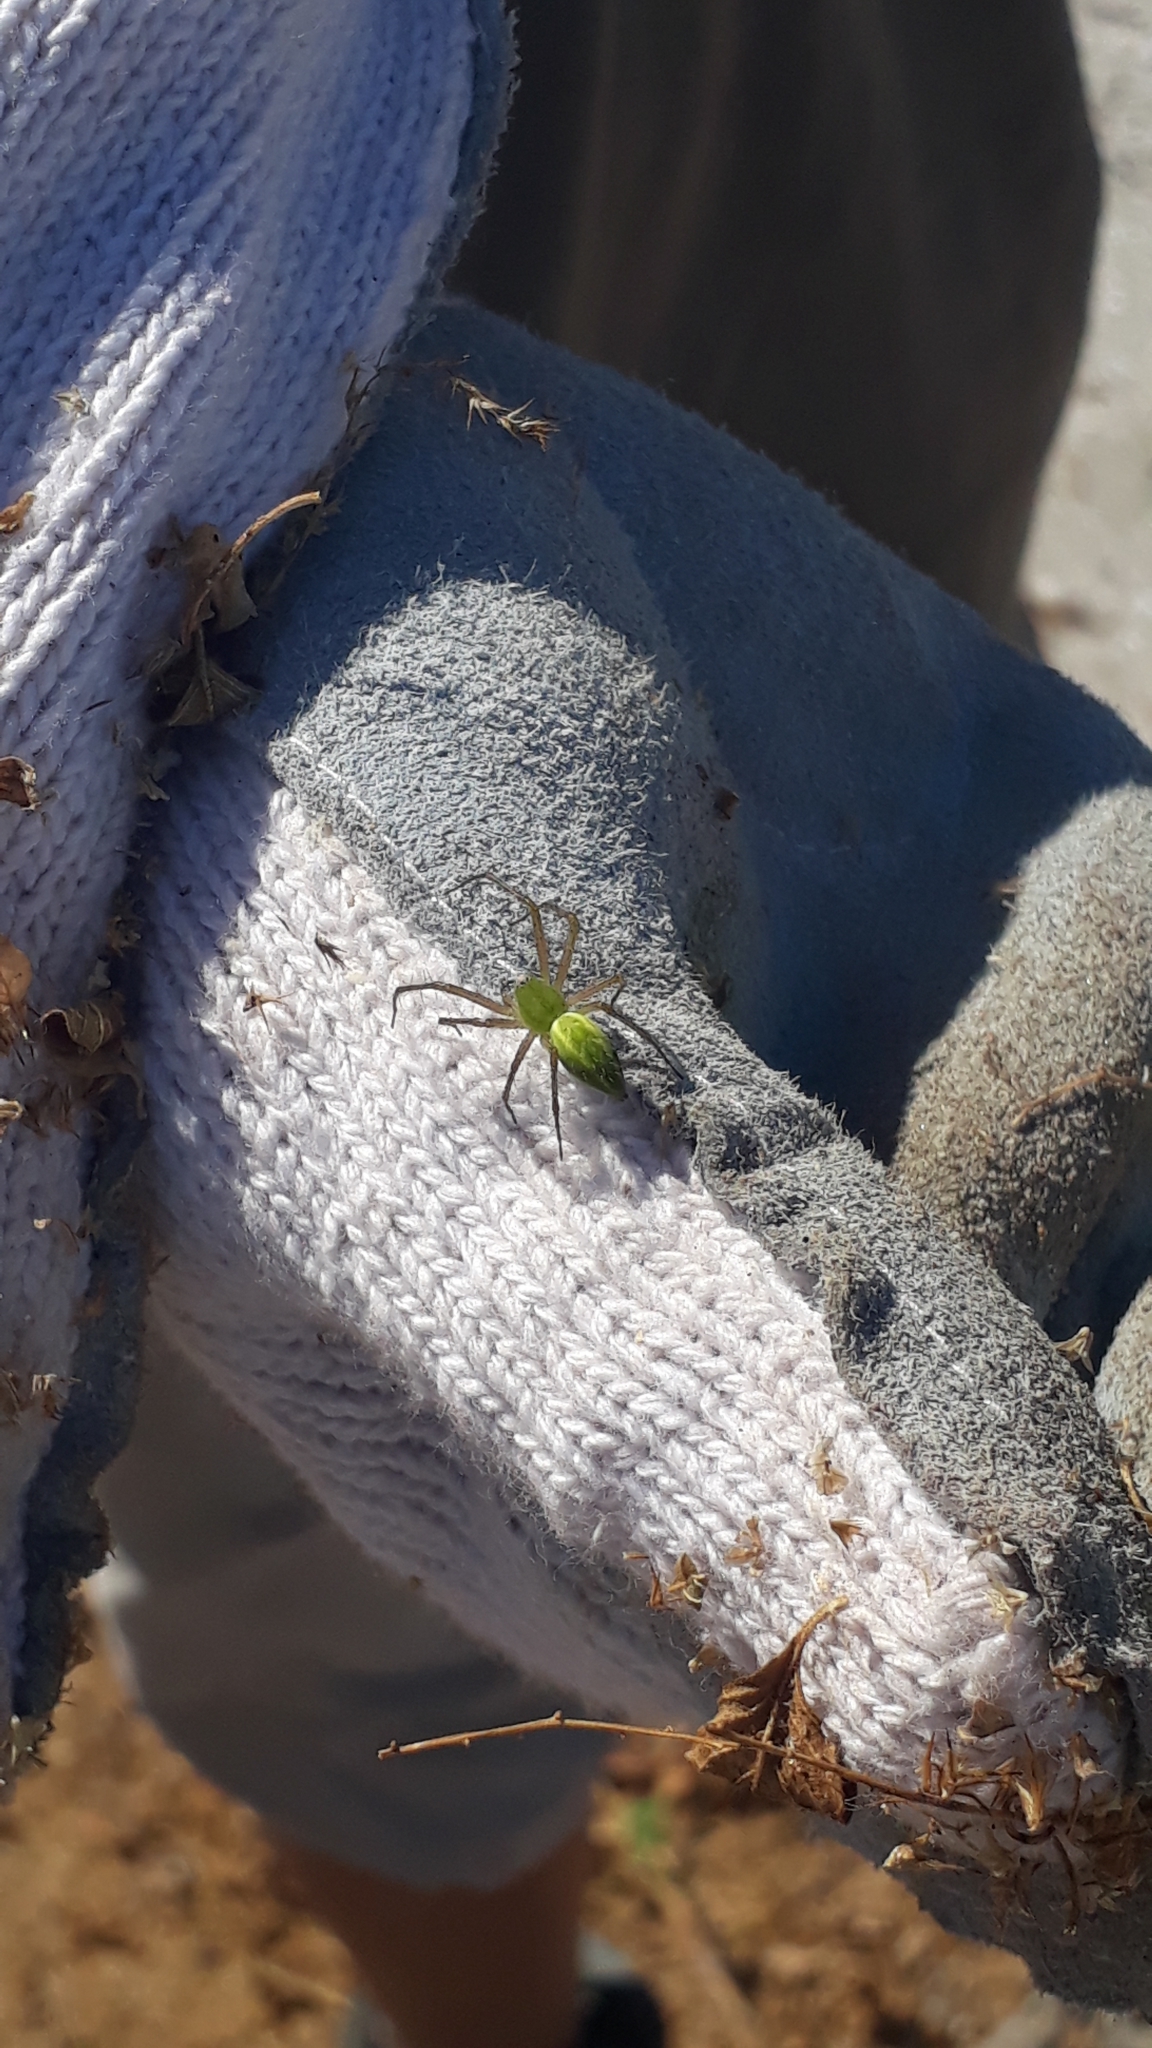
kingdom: Animalia
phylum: Arthropoda
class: Arachnida
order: Araneae
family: Oxyopidae
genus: Peucetia
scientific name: Peucetia viridans
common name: Lynx spiders
